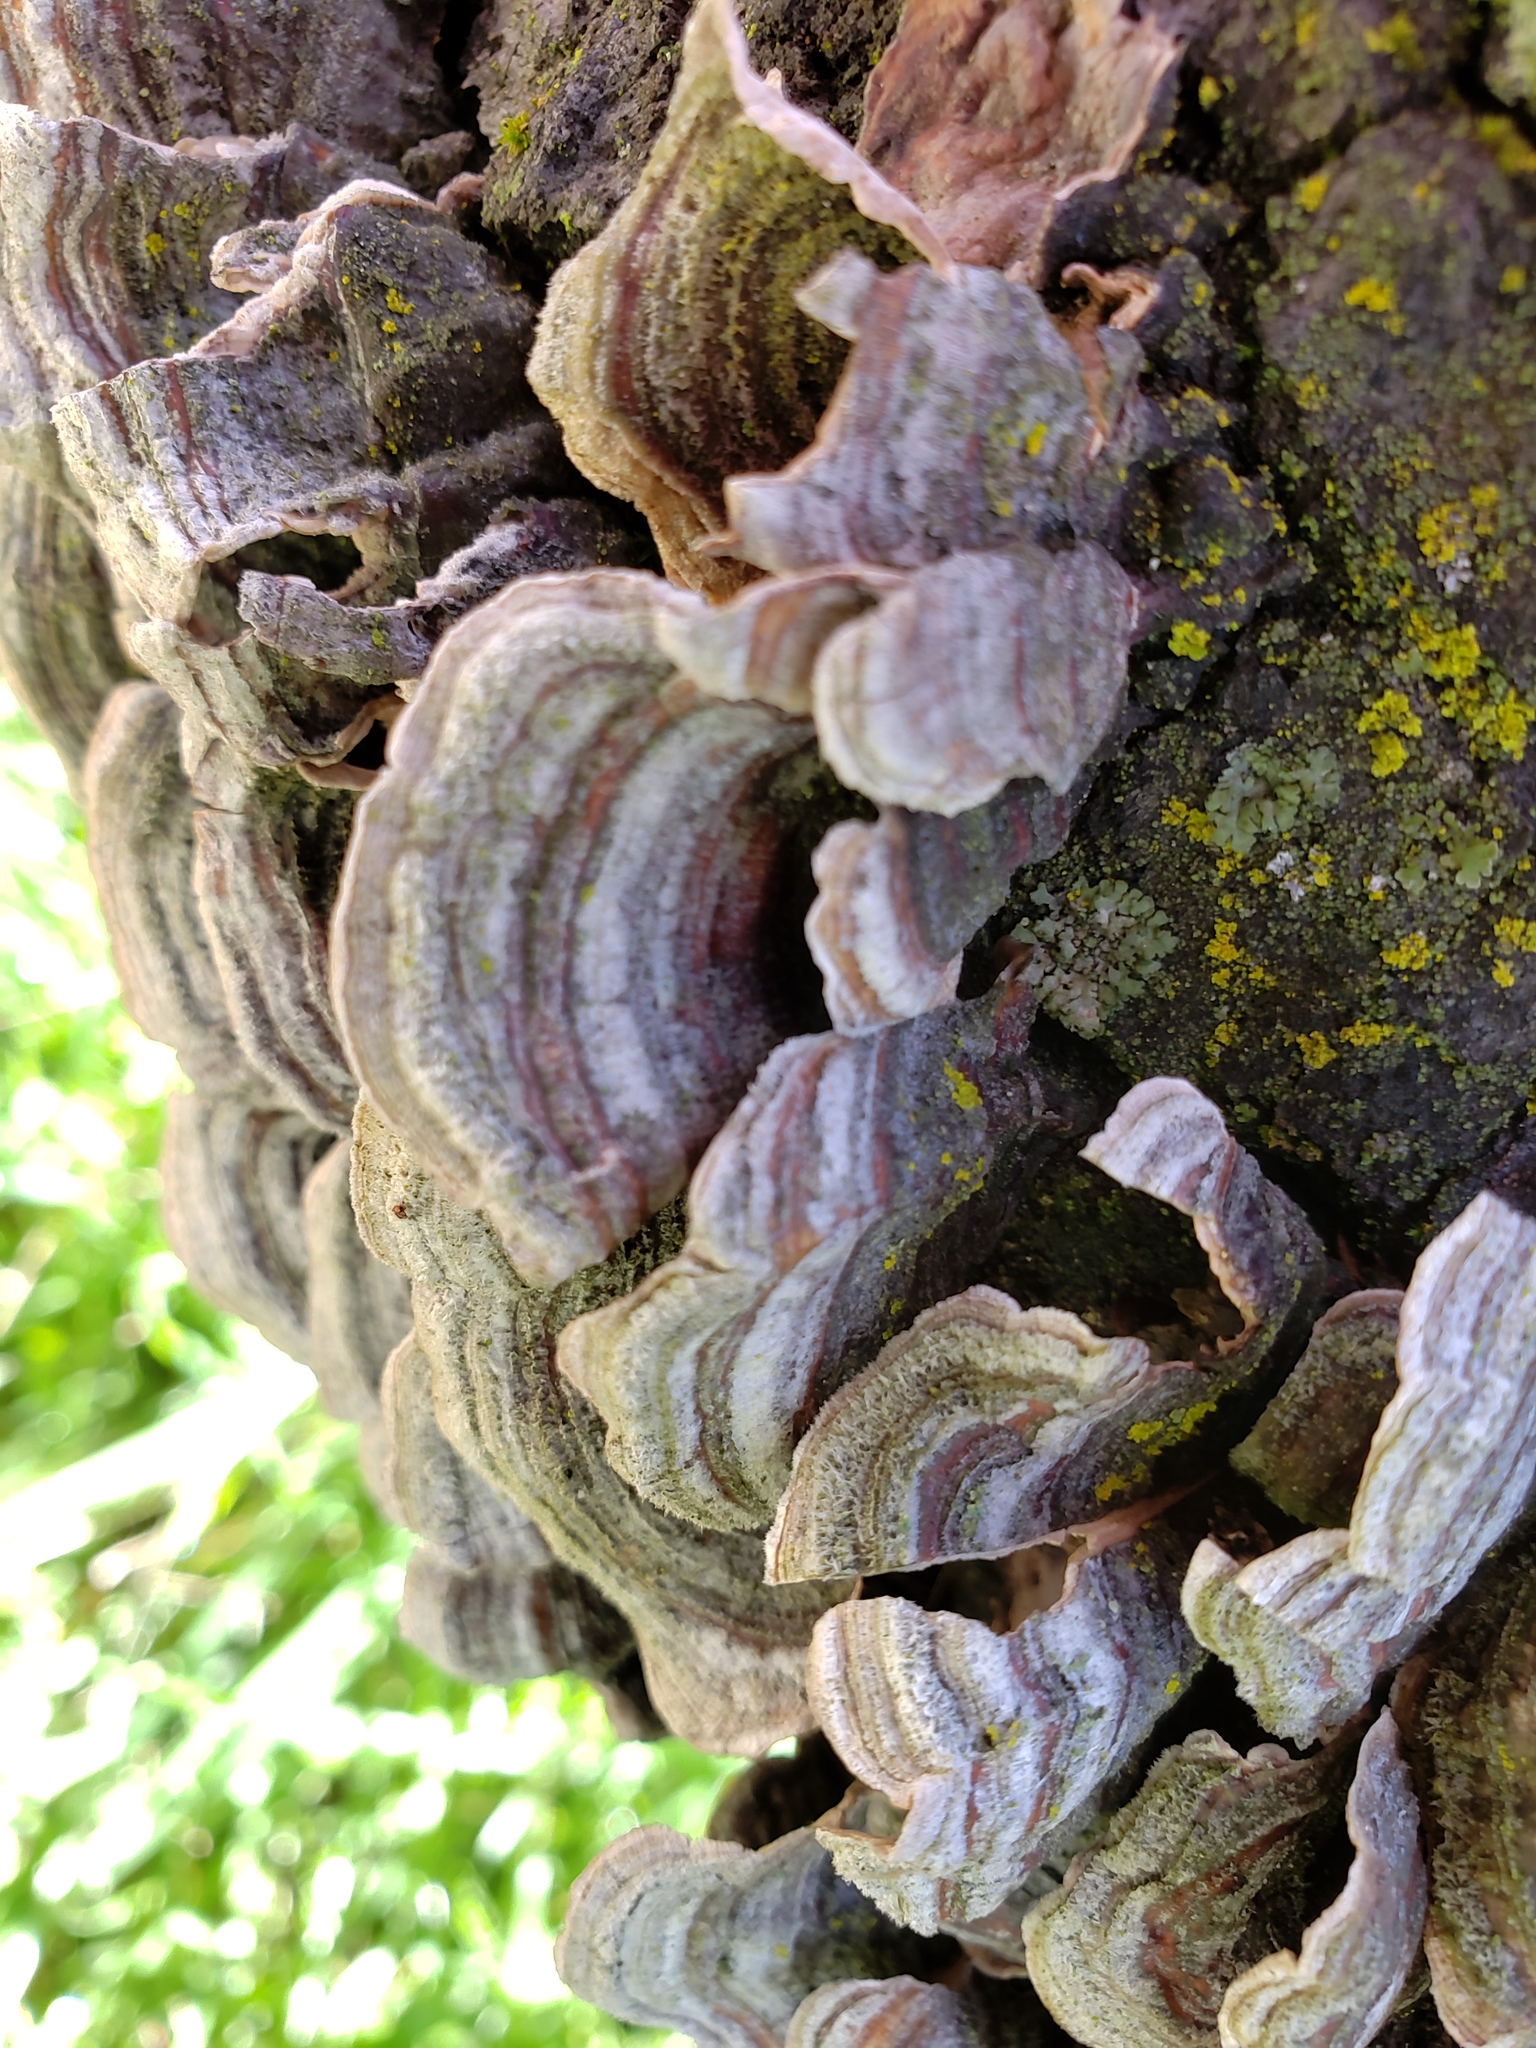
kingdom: Fungi
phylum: Basidiomycota
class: Agaricomycetes
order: Russulales
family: Stereaceae
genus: Stereum
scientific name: Stereum hirsutum
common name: Hairy curtain crust
